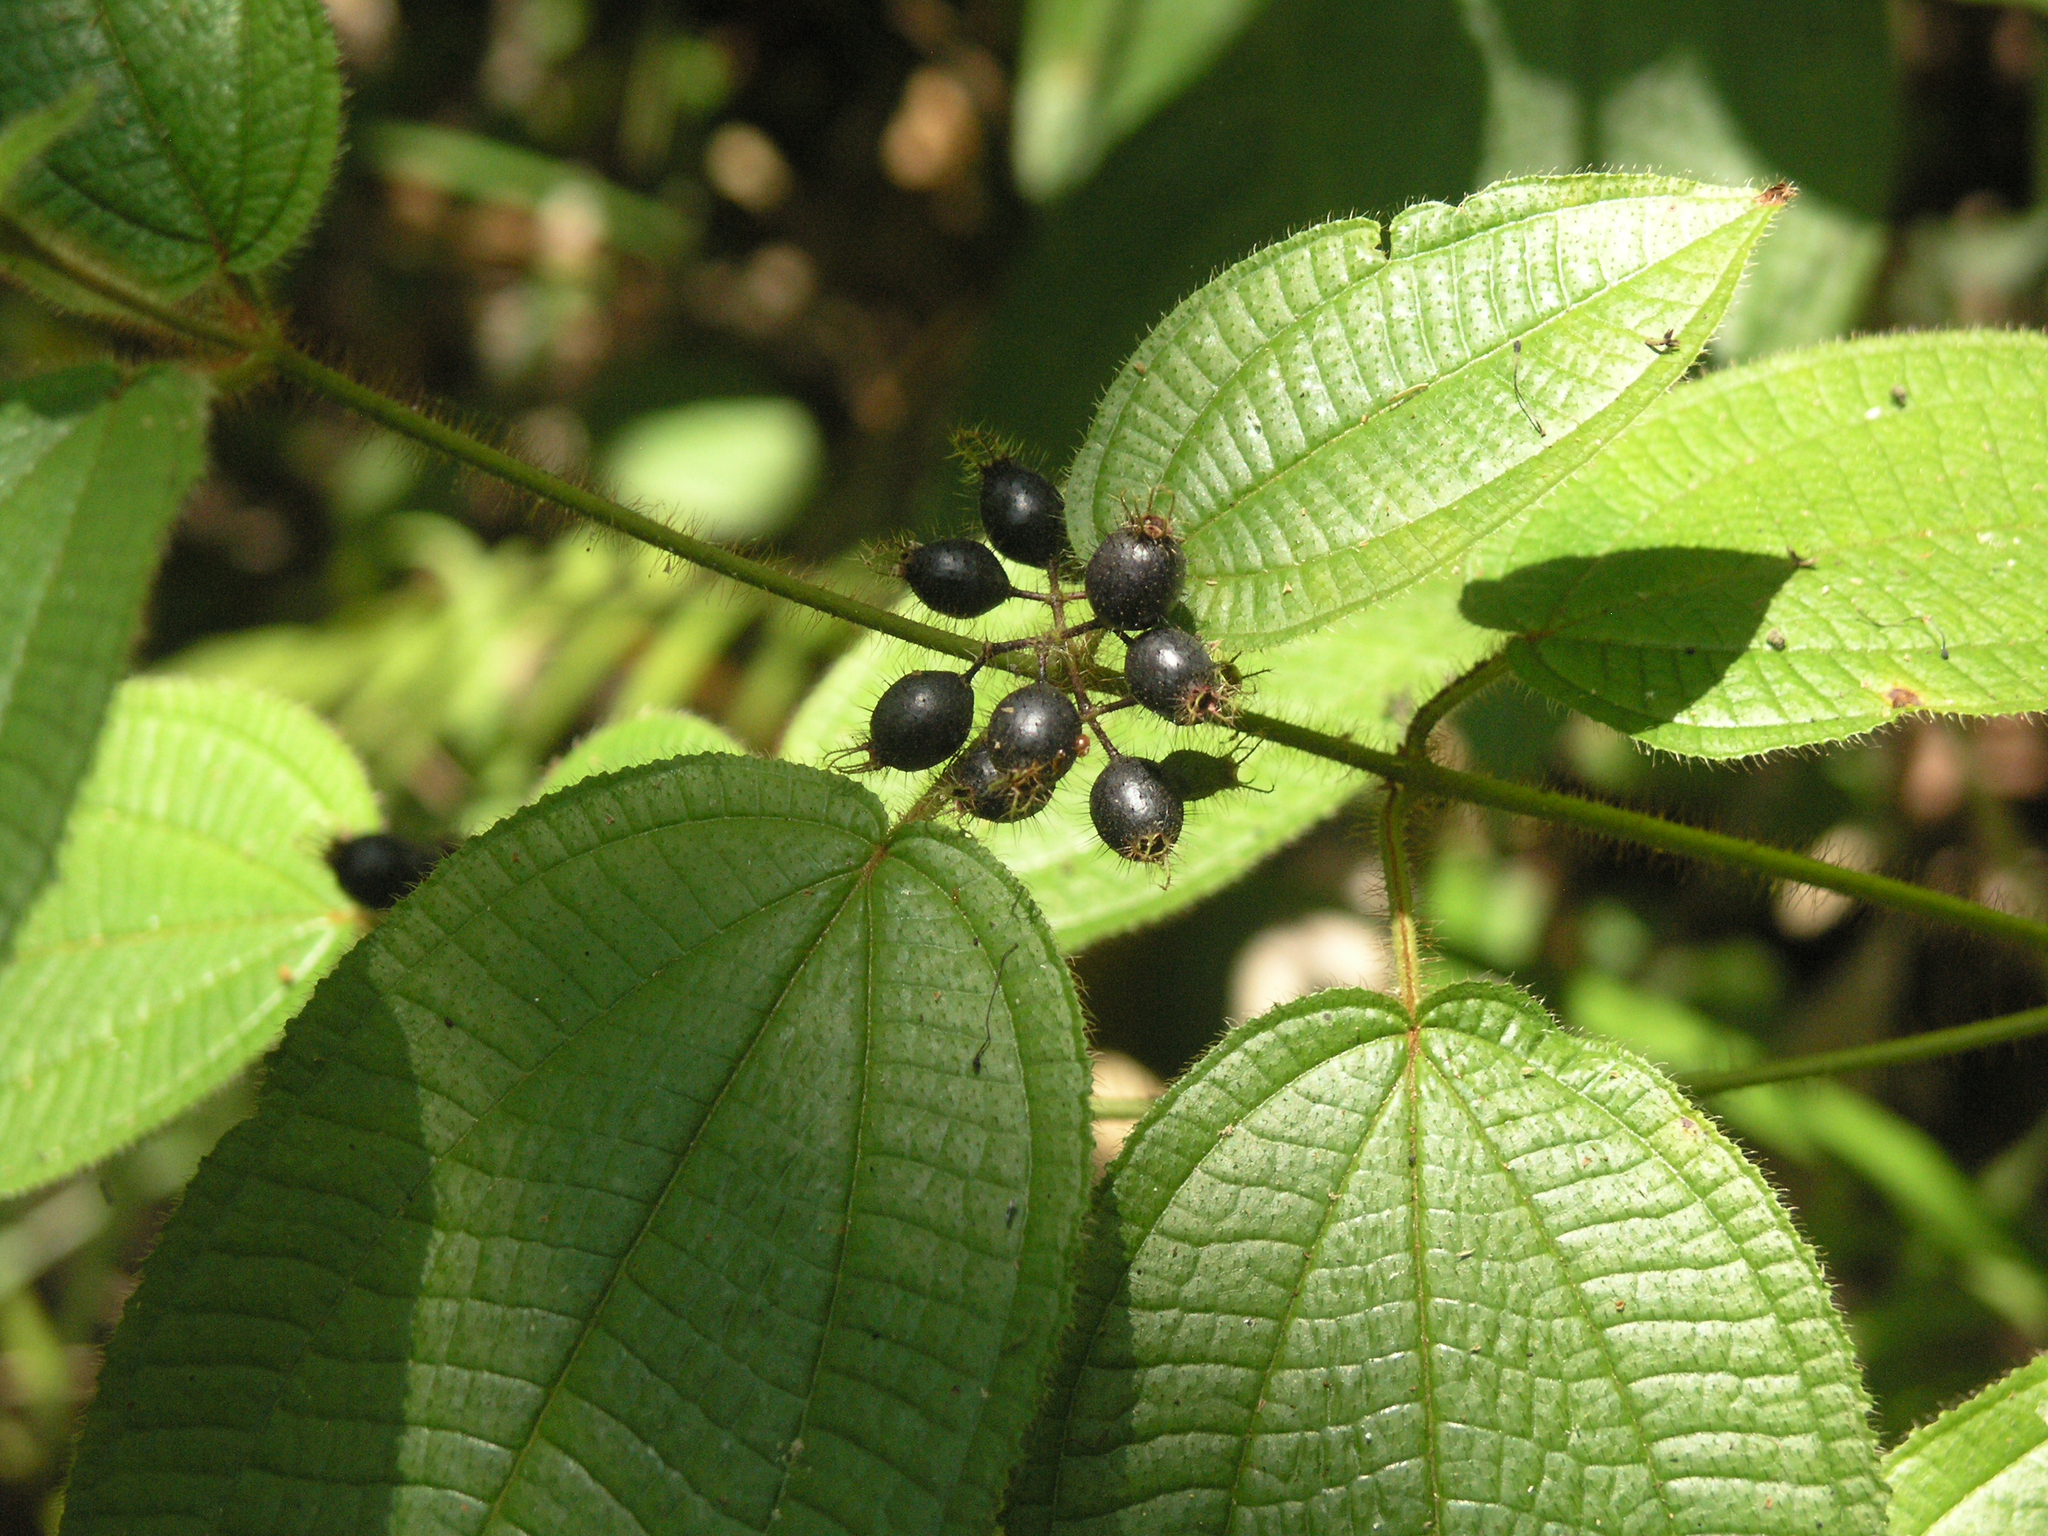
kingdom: Plantae
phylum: Tracheophyta
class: Magnoliopsida
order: Myrtales
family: Melastomataceae
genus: Miconia
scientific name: Miconia crenata
